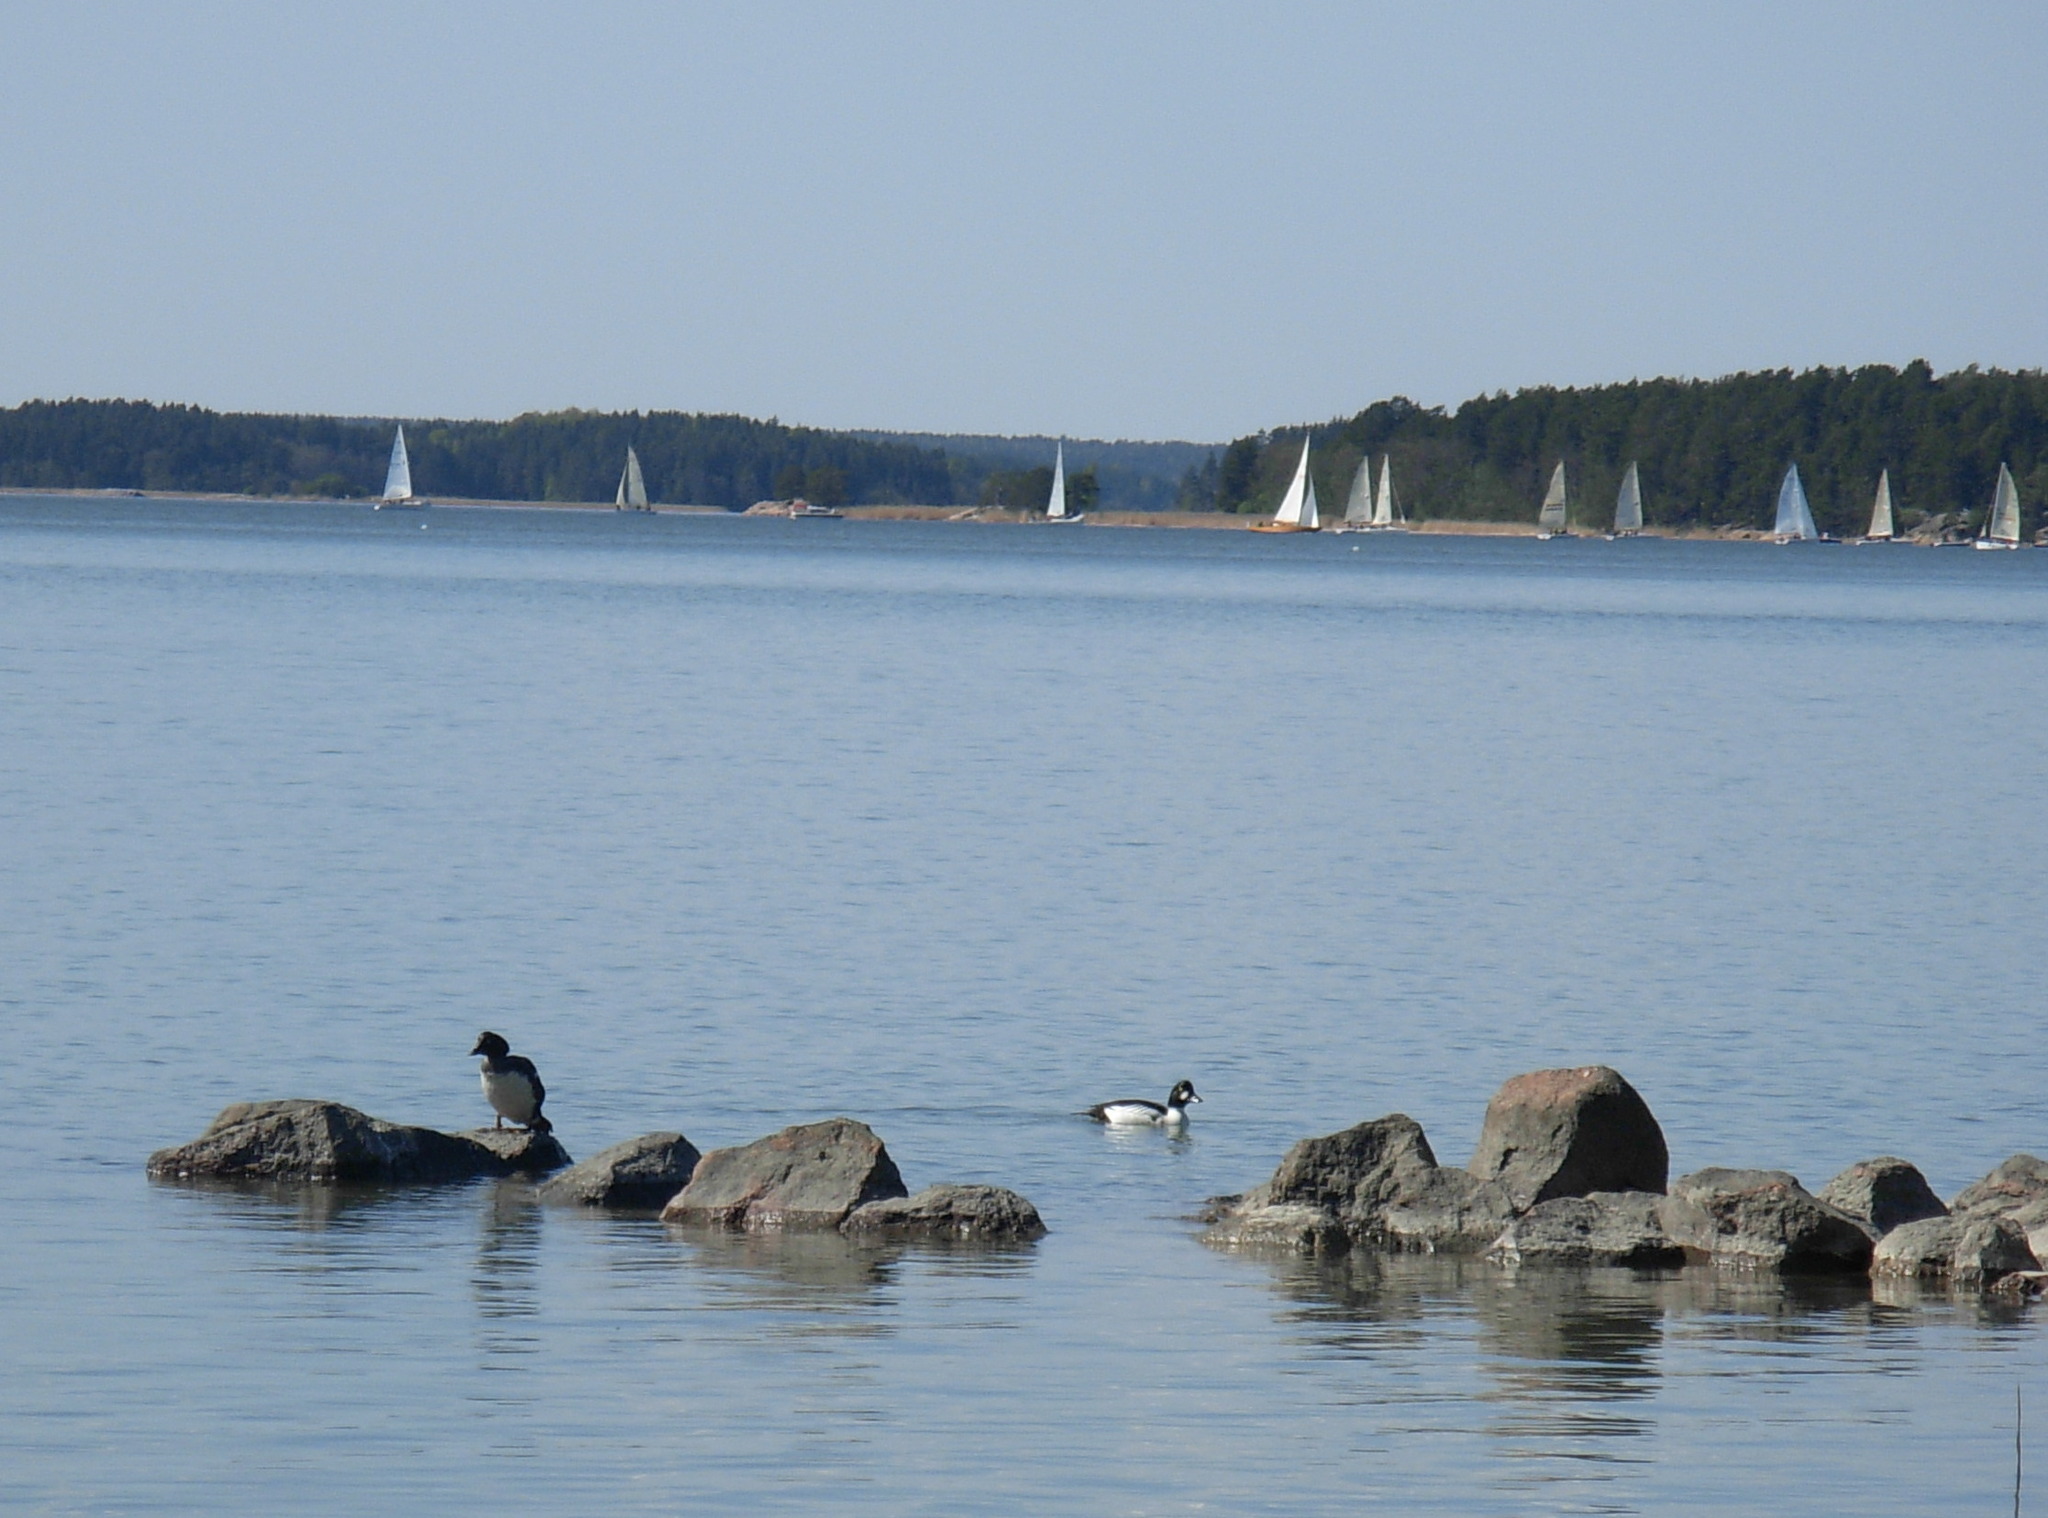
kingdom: Animalia
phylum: Chordata
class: Aves
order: Anseriformes
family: Anatidae
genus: Bucephala
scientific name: Bucephala clangula
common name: Common goldeneye
